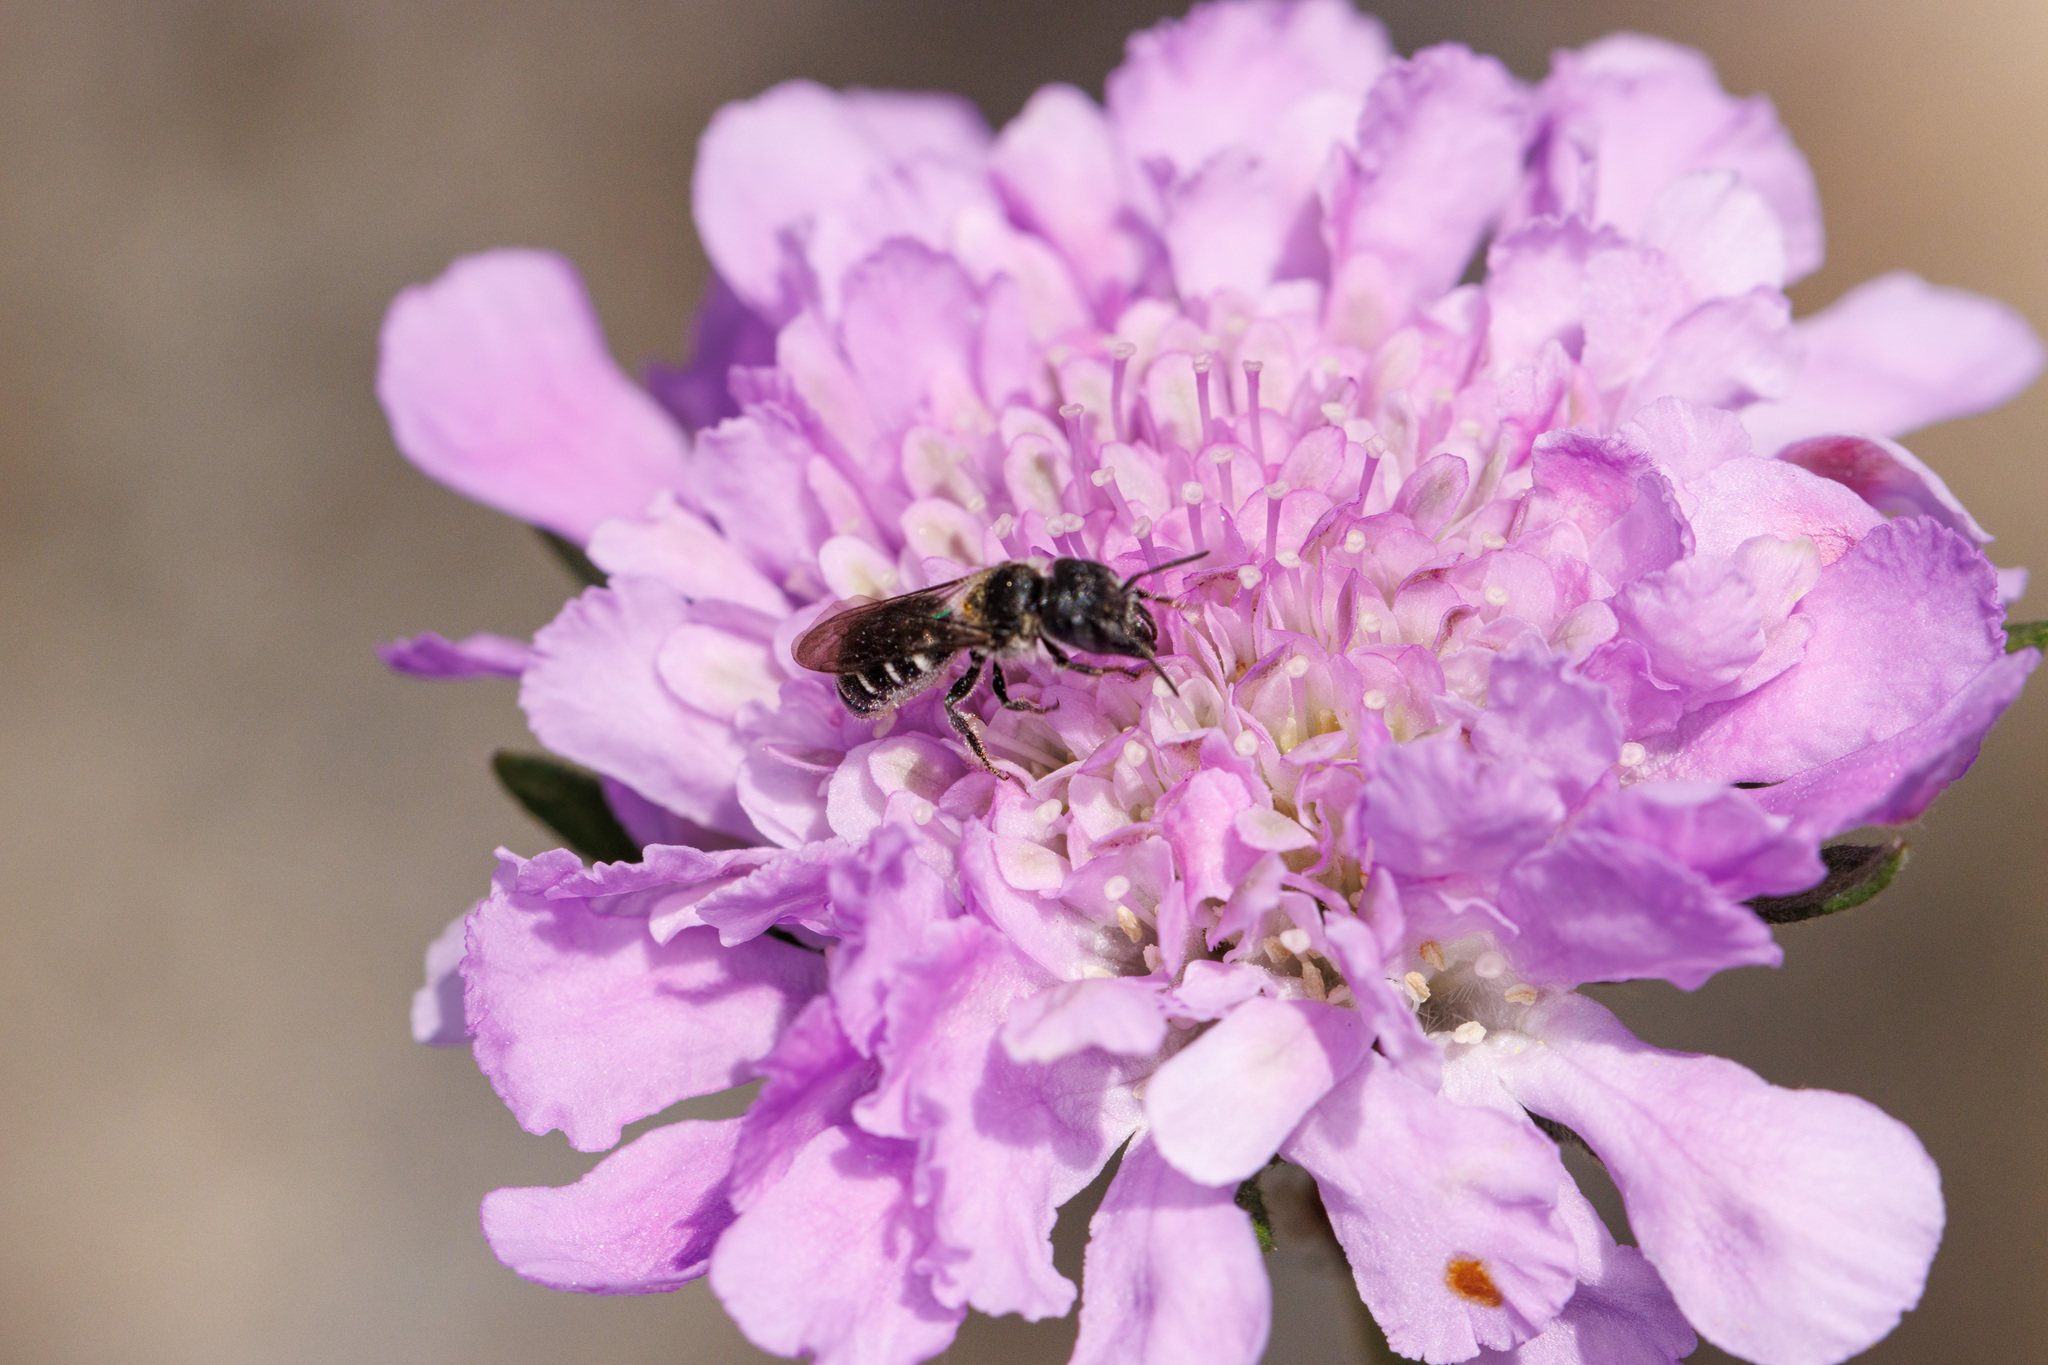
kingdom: Animalia
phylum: Arthropoda
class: Insecta
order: Hymenoptera
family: Megachilidae
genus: Protosmia
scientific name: Protosmia rubifloris
